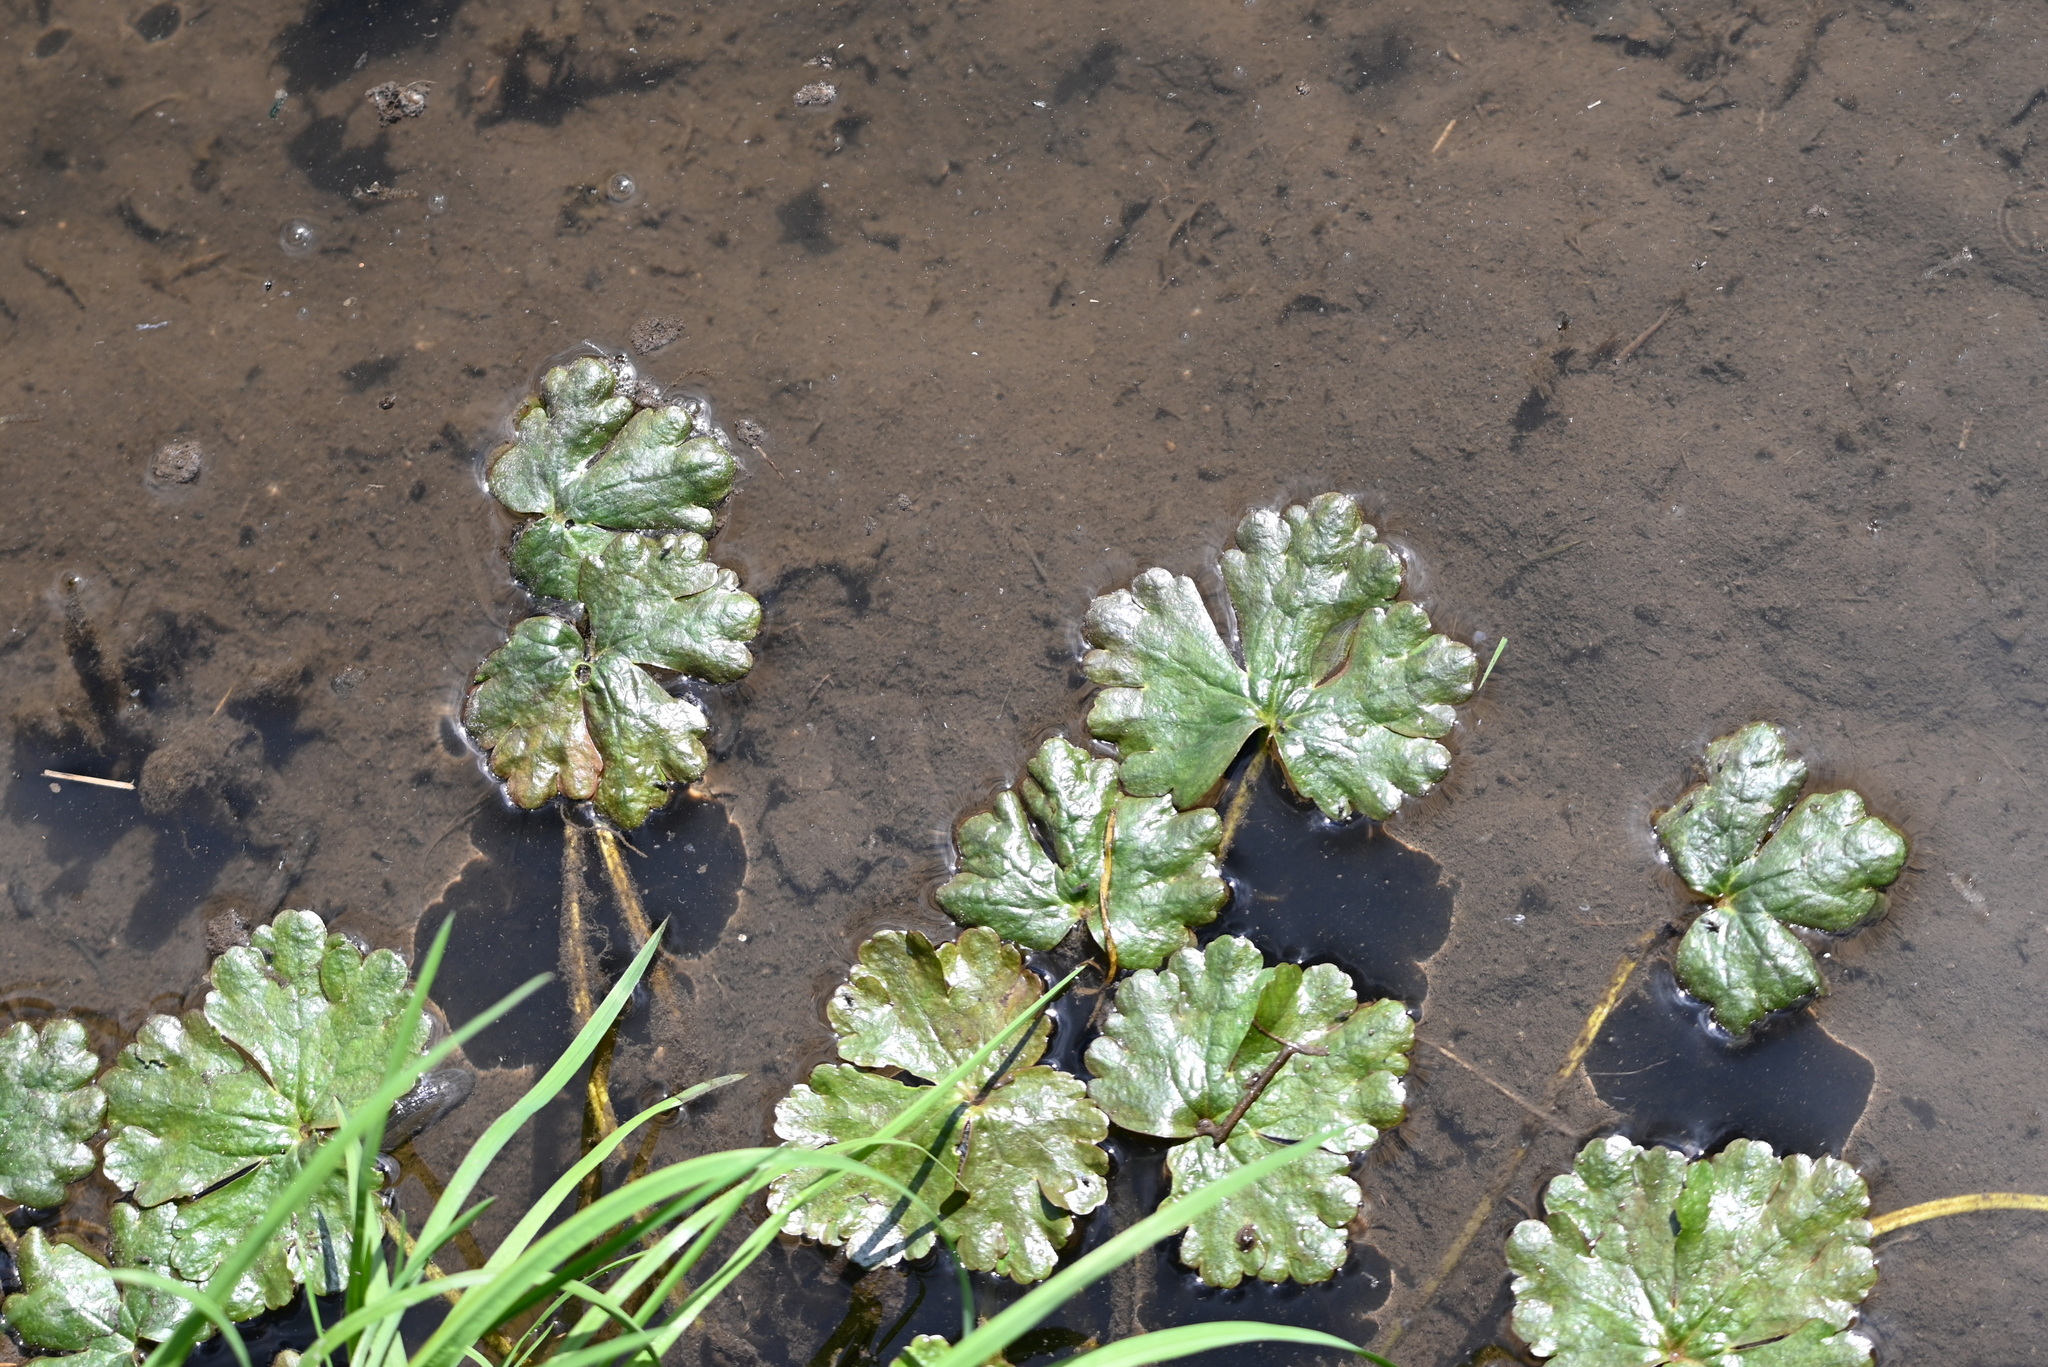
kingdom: Plantae
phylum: Tracheophyta
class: Magnoliopsida
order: Ranunculales
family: Ranunculaceae
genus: Ranunculus
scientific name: Ranunculus sceleratus
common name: Celery-leaved buttercup
